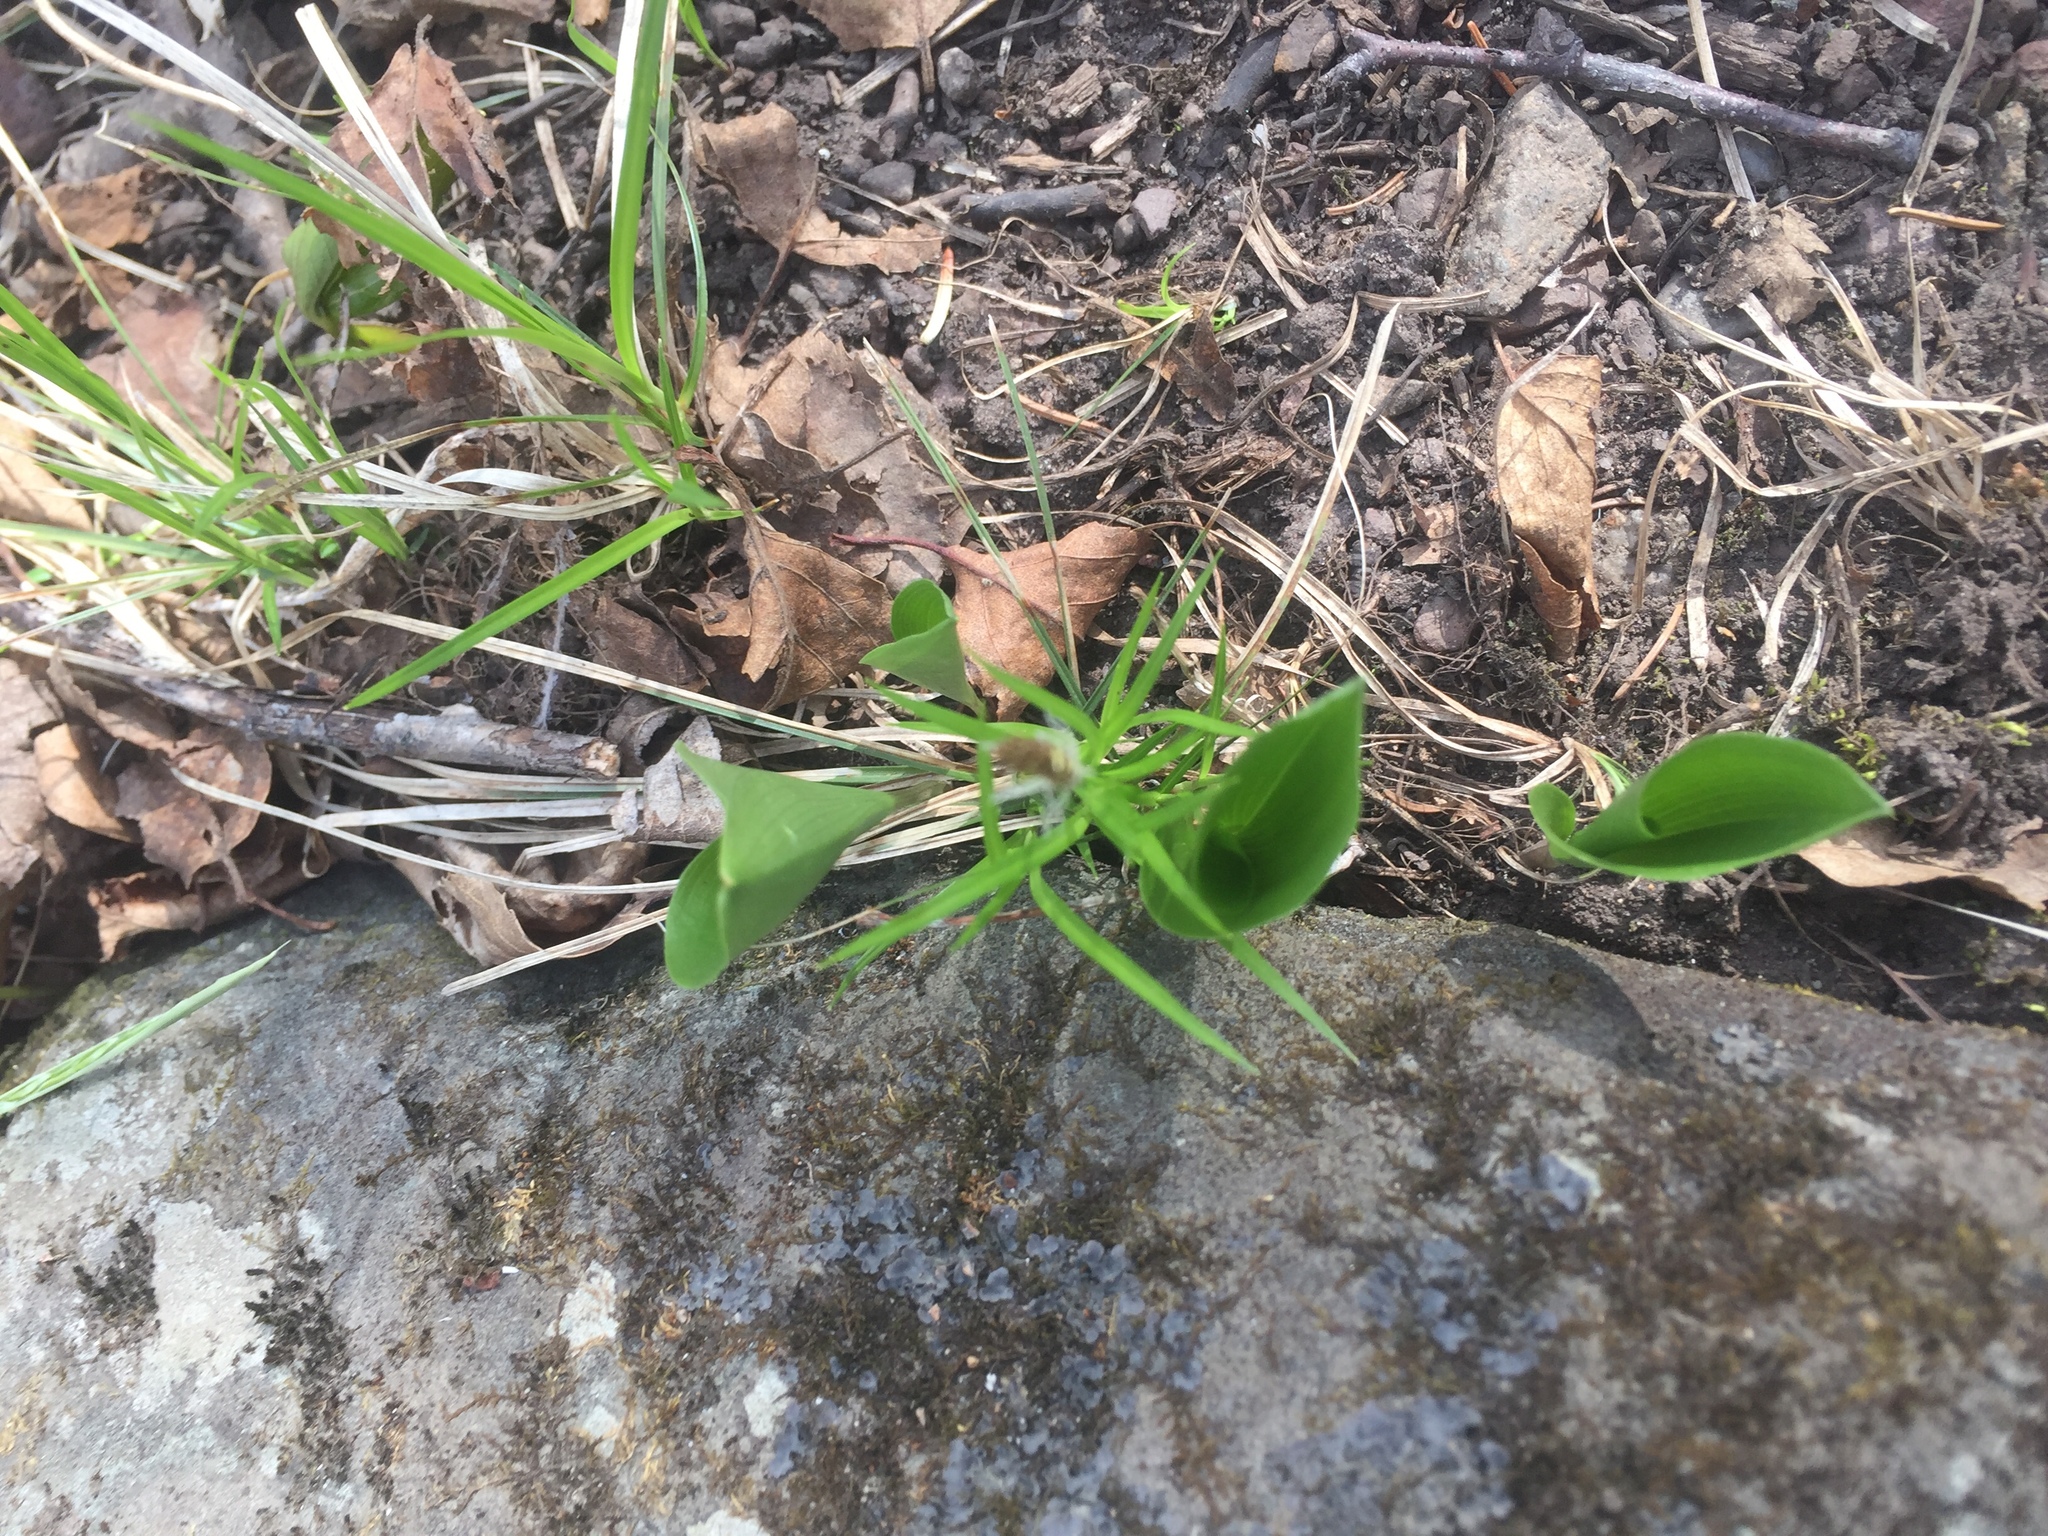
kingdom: Plantae
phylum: Tracheophyta
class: Liliopsida
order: Asparagales
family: Asparagaceae
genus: Maianthemum
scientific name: Maianthemum canadense
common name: False lily-of-the-valley
